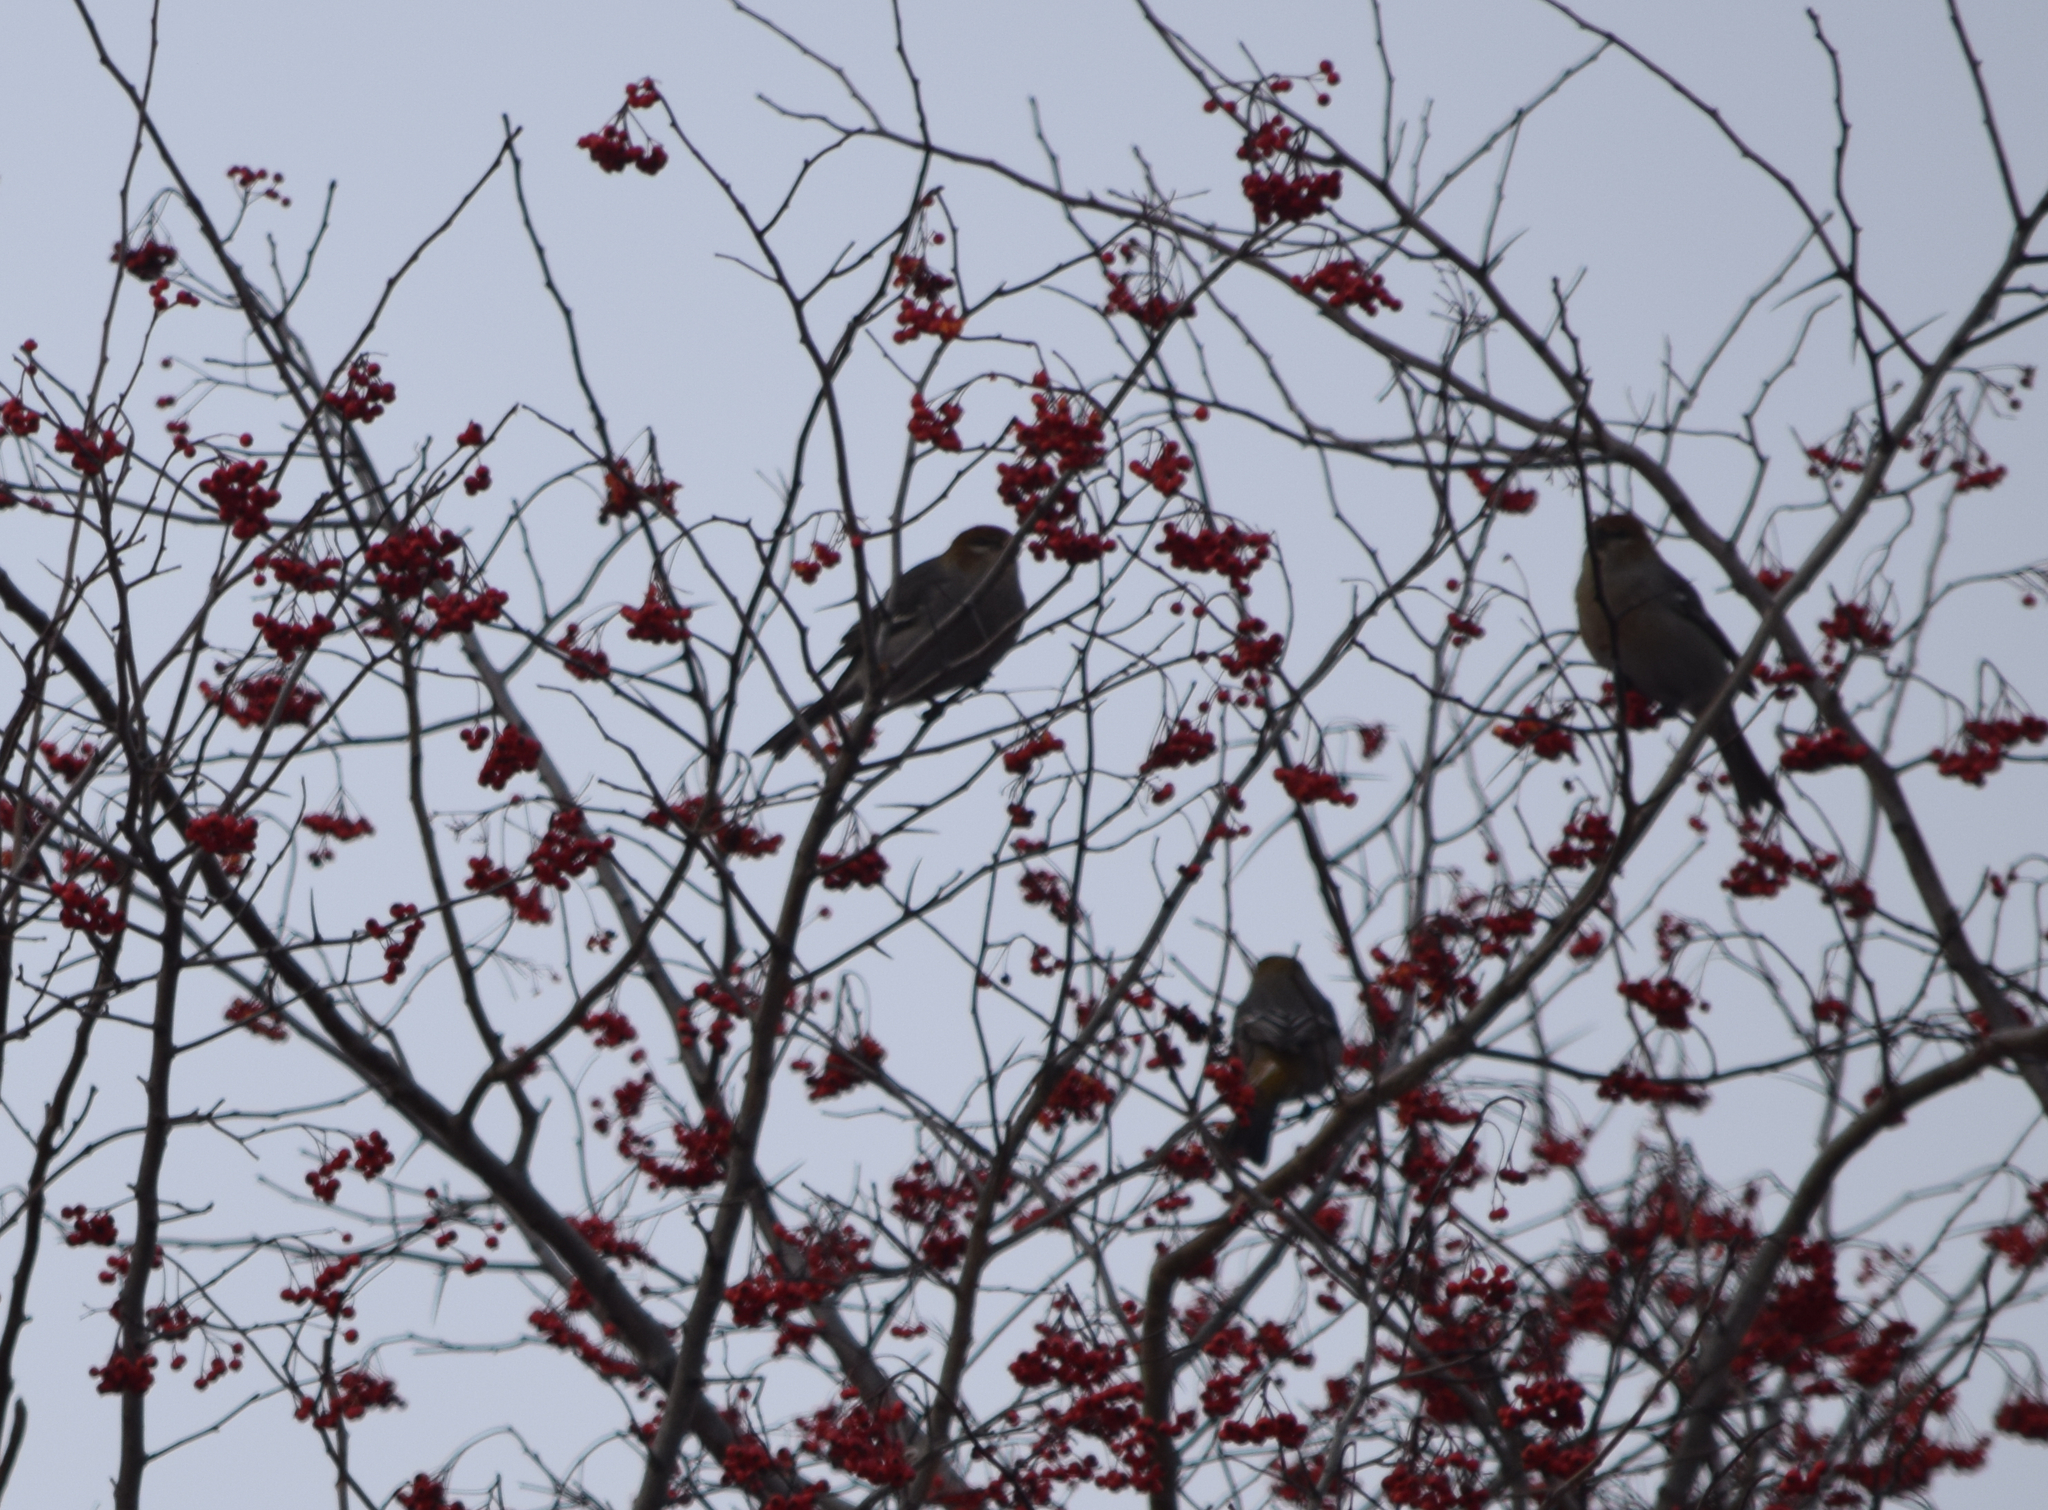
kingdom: Animalia
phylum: Chordata
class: Aves
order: Passeriformes
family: Fringillidae
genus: Pinicola
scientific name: Pinicola enucleator
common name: Pine grosbeak
